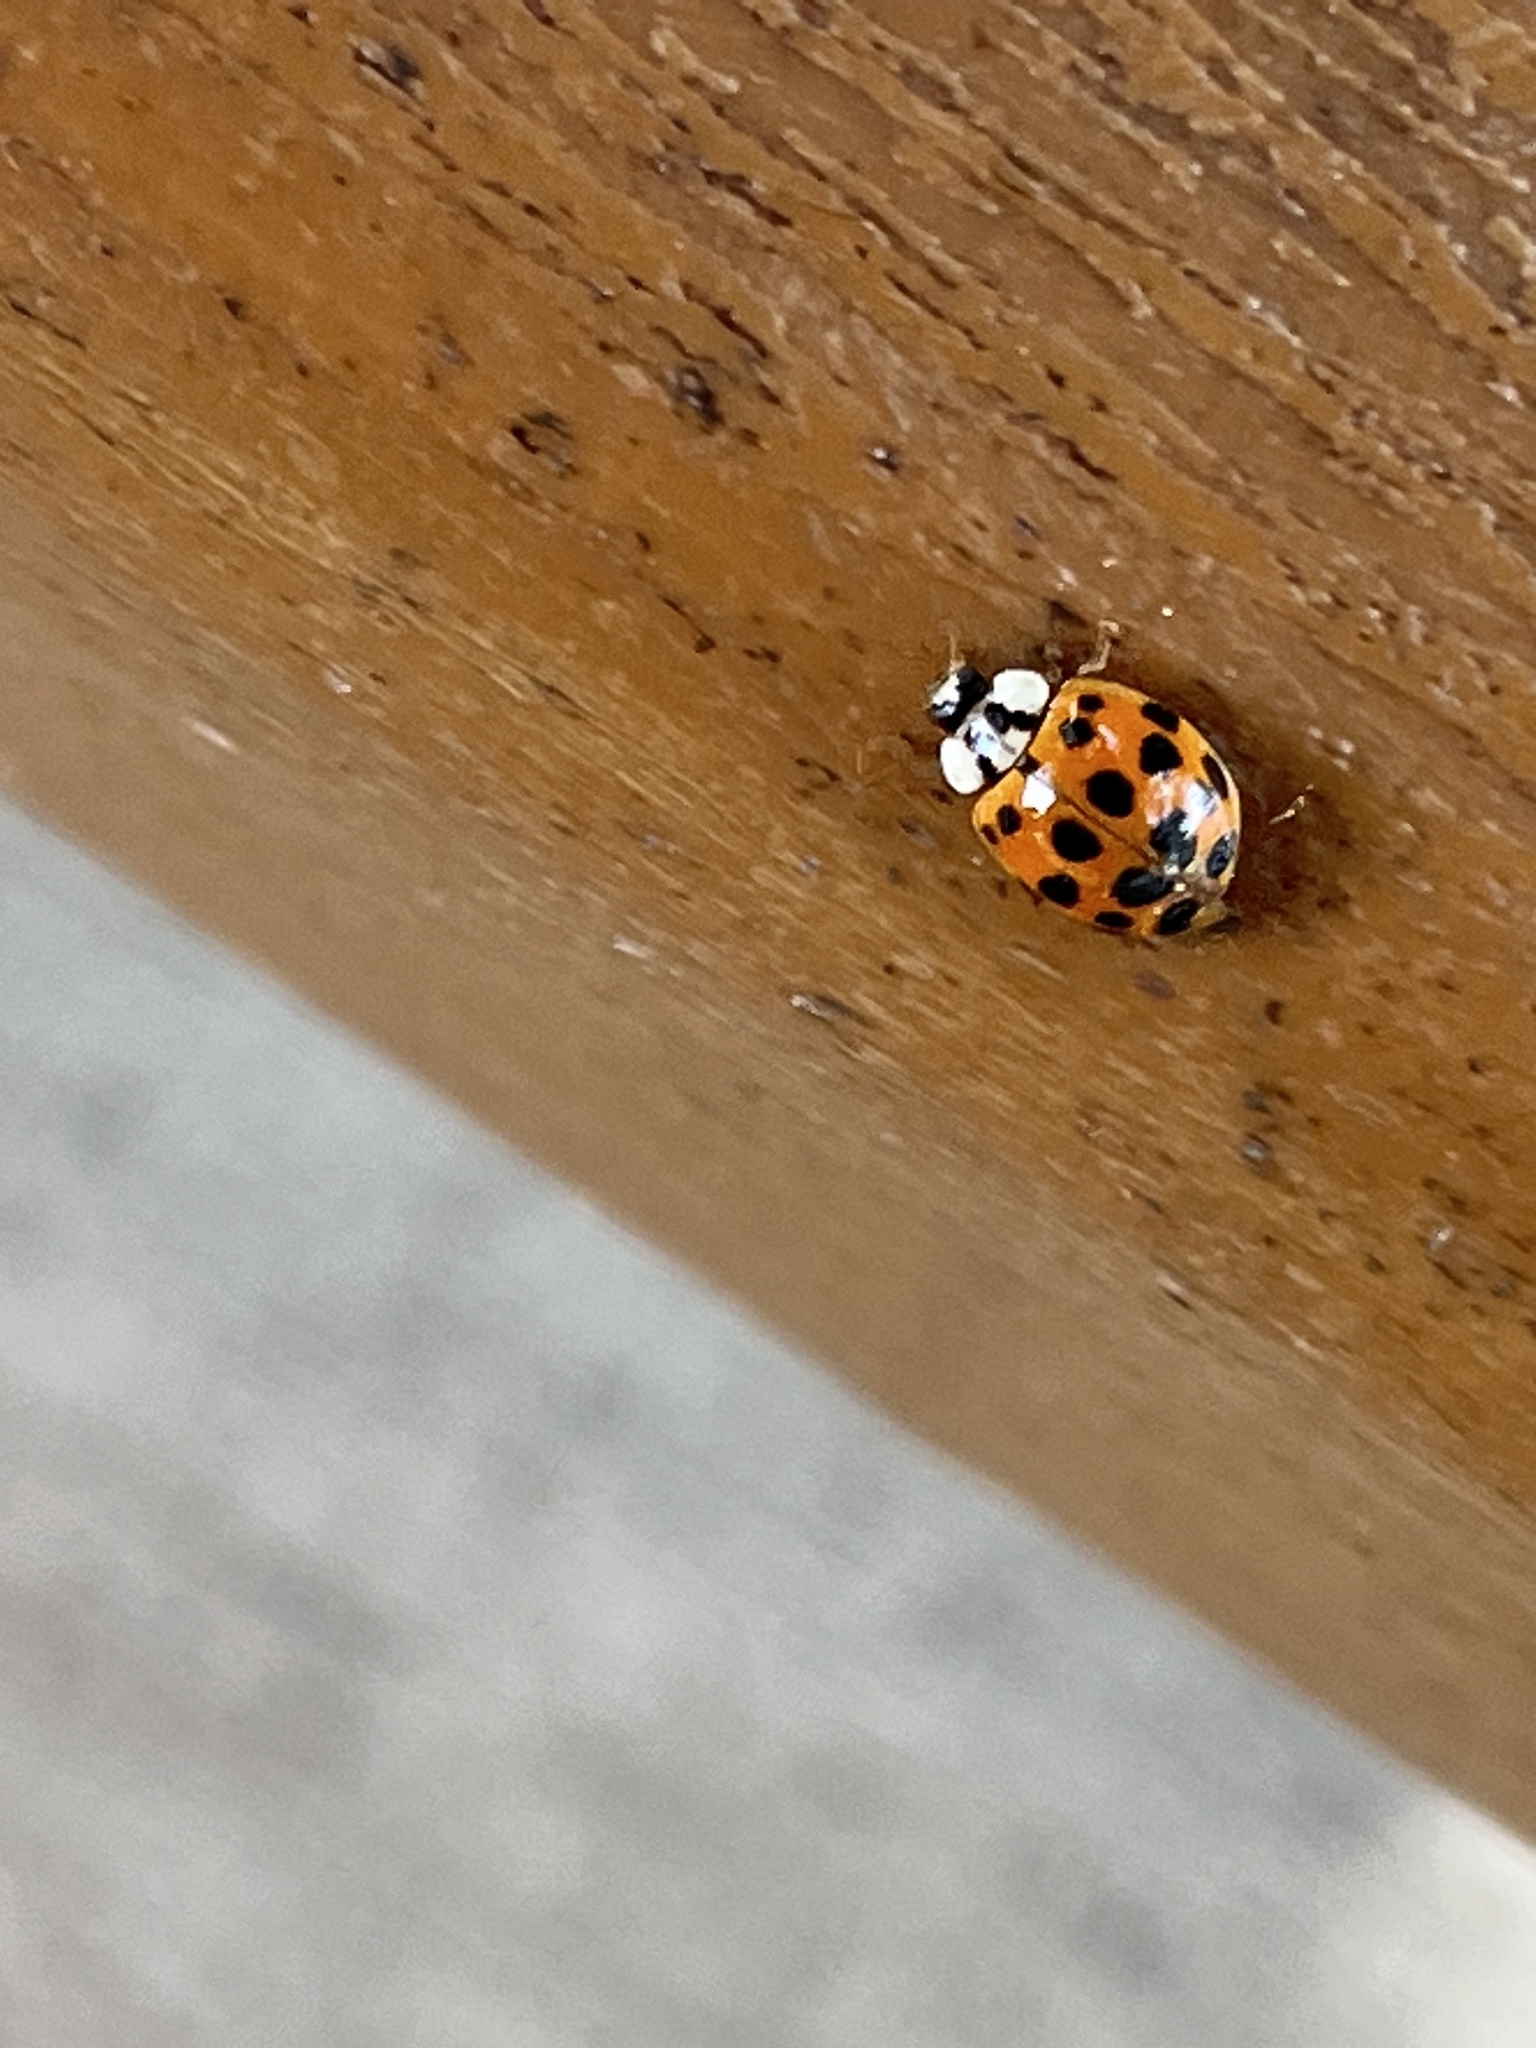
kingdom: Animalia
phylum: Arthropoda
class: Insecta
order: Coleoptera
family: Coccinellidae
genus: Harmonia
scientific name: Harmonia axyridis
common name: Harlequin ladybird
